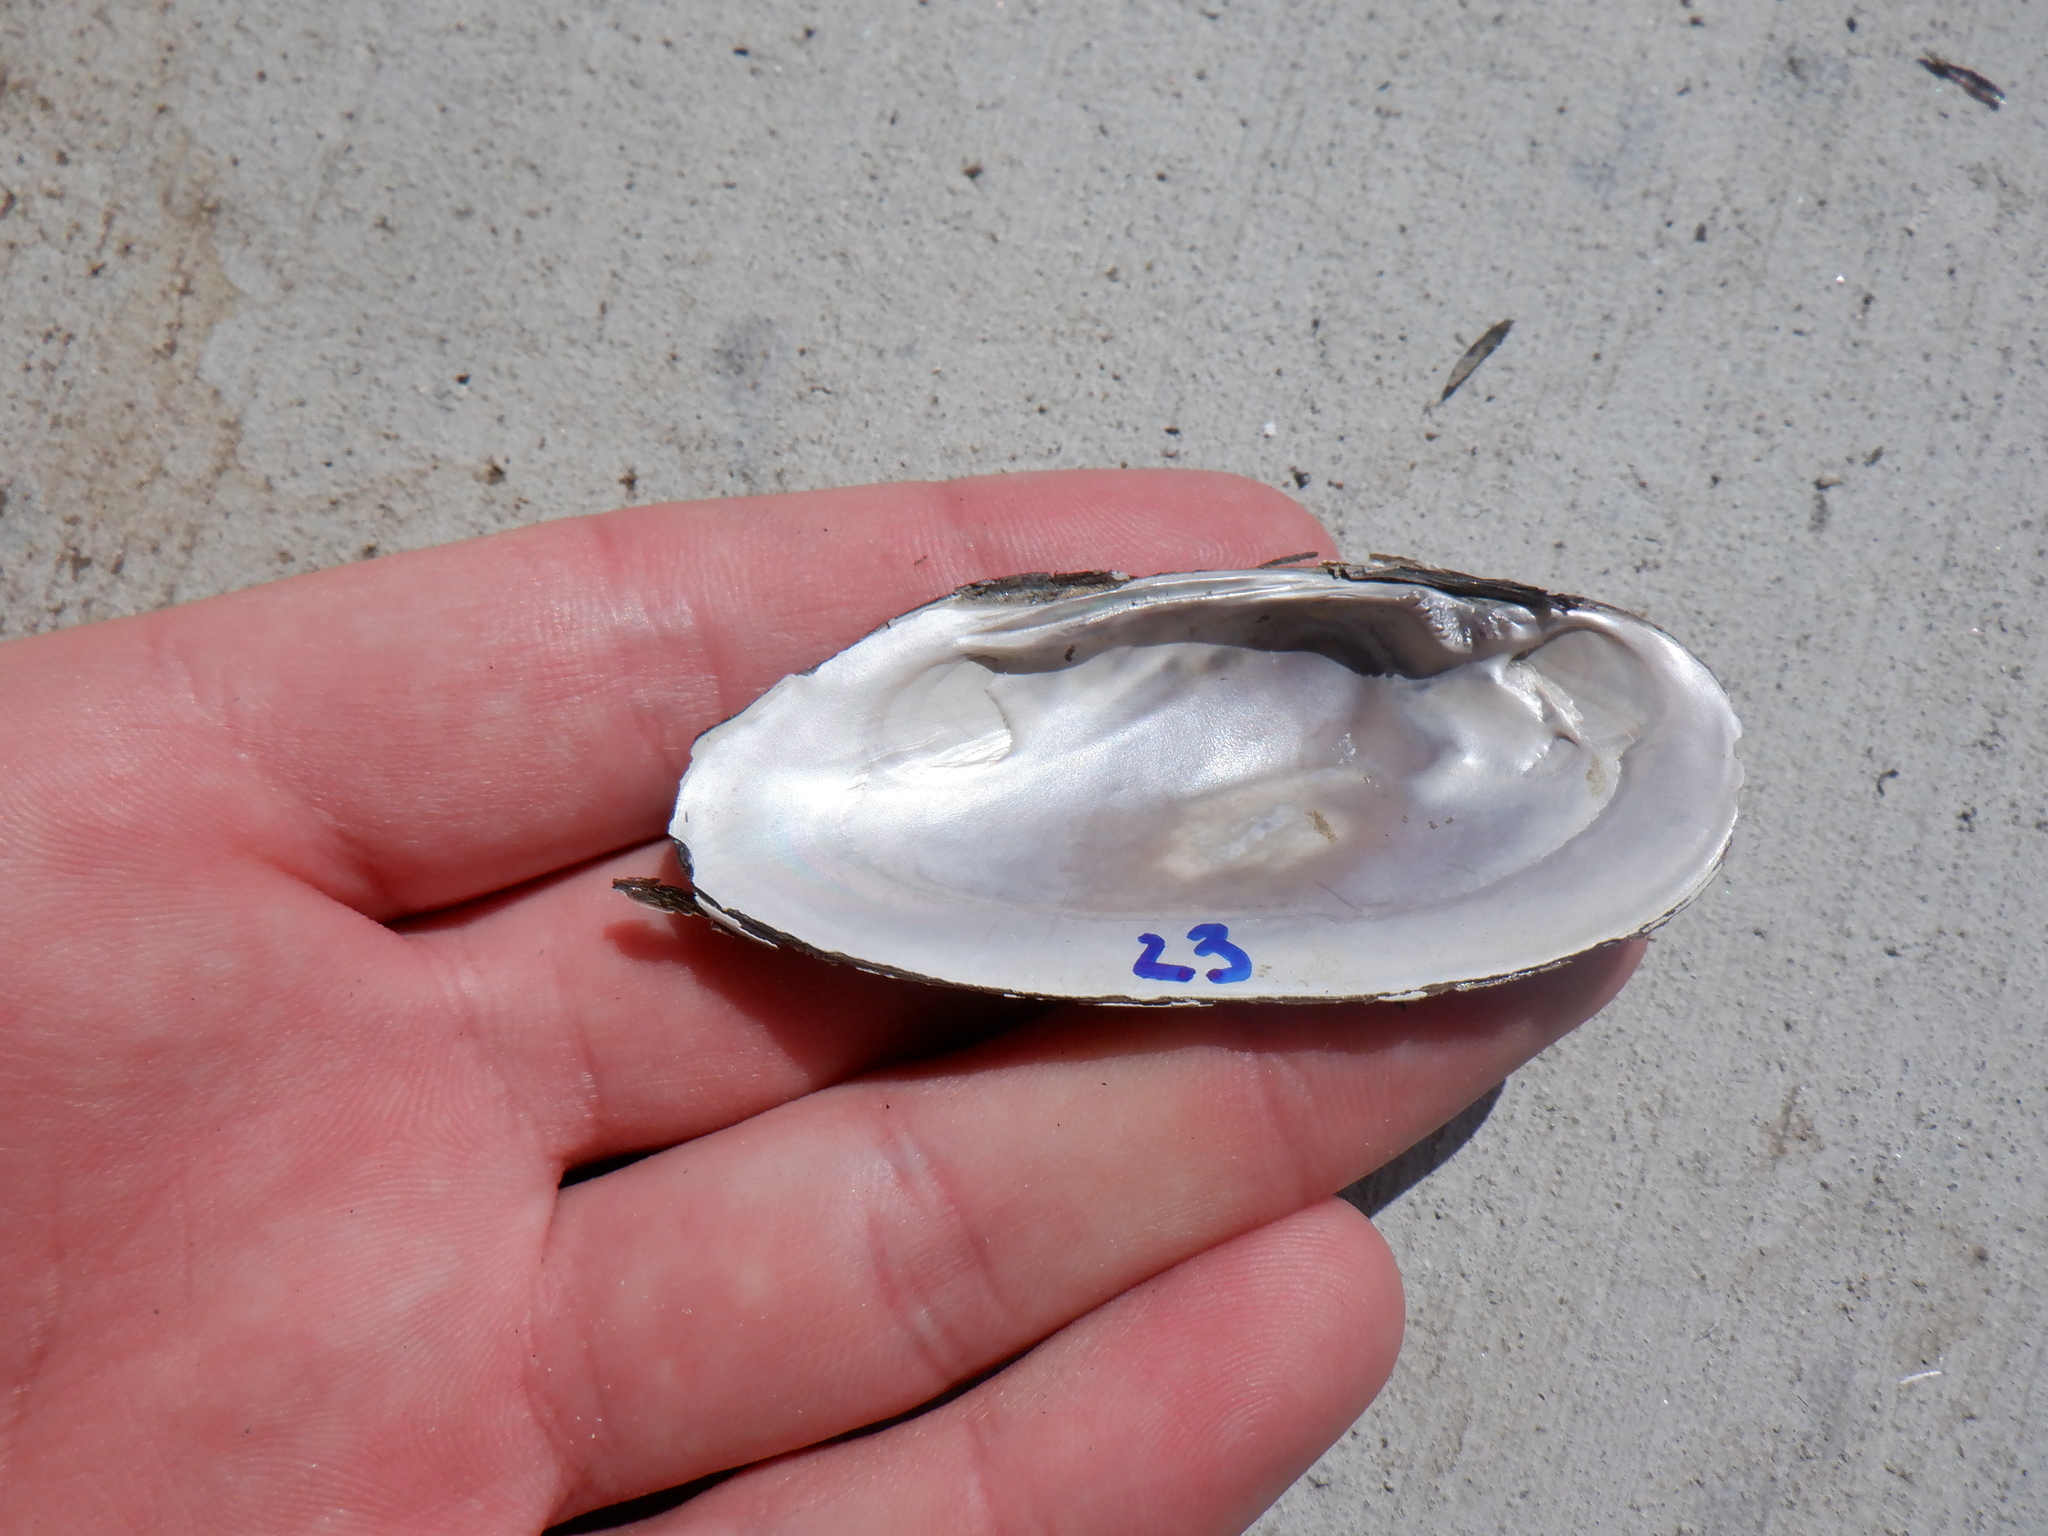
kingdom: Animalia
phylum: Mollusca
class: Bivalvia
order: Unionida
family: Unionidae
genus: Eurynia
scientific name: Eurynia dilatata
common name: Spike
